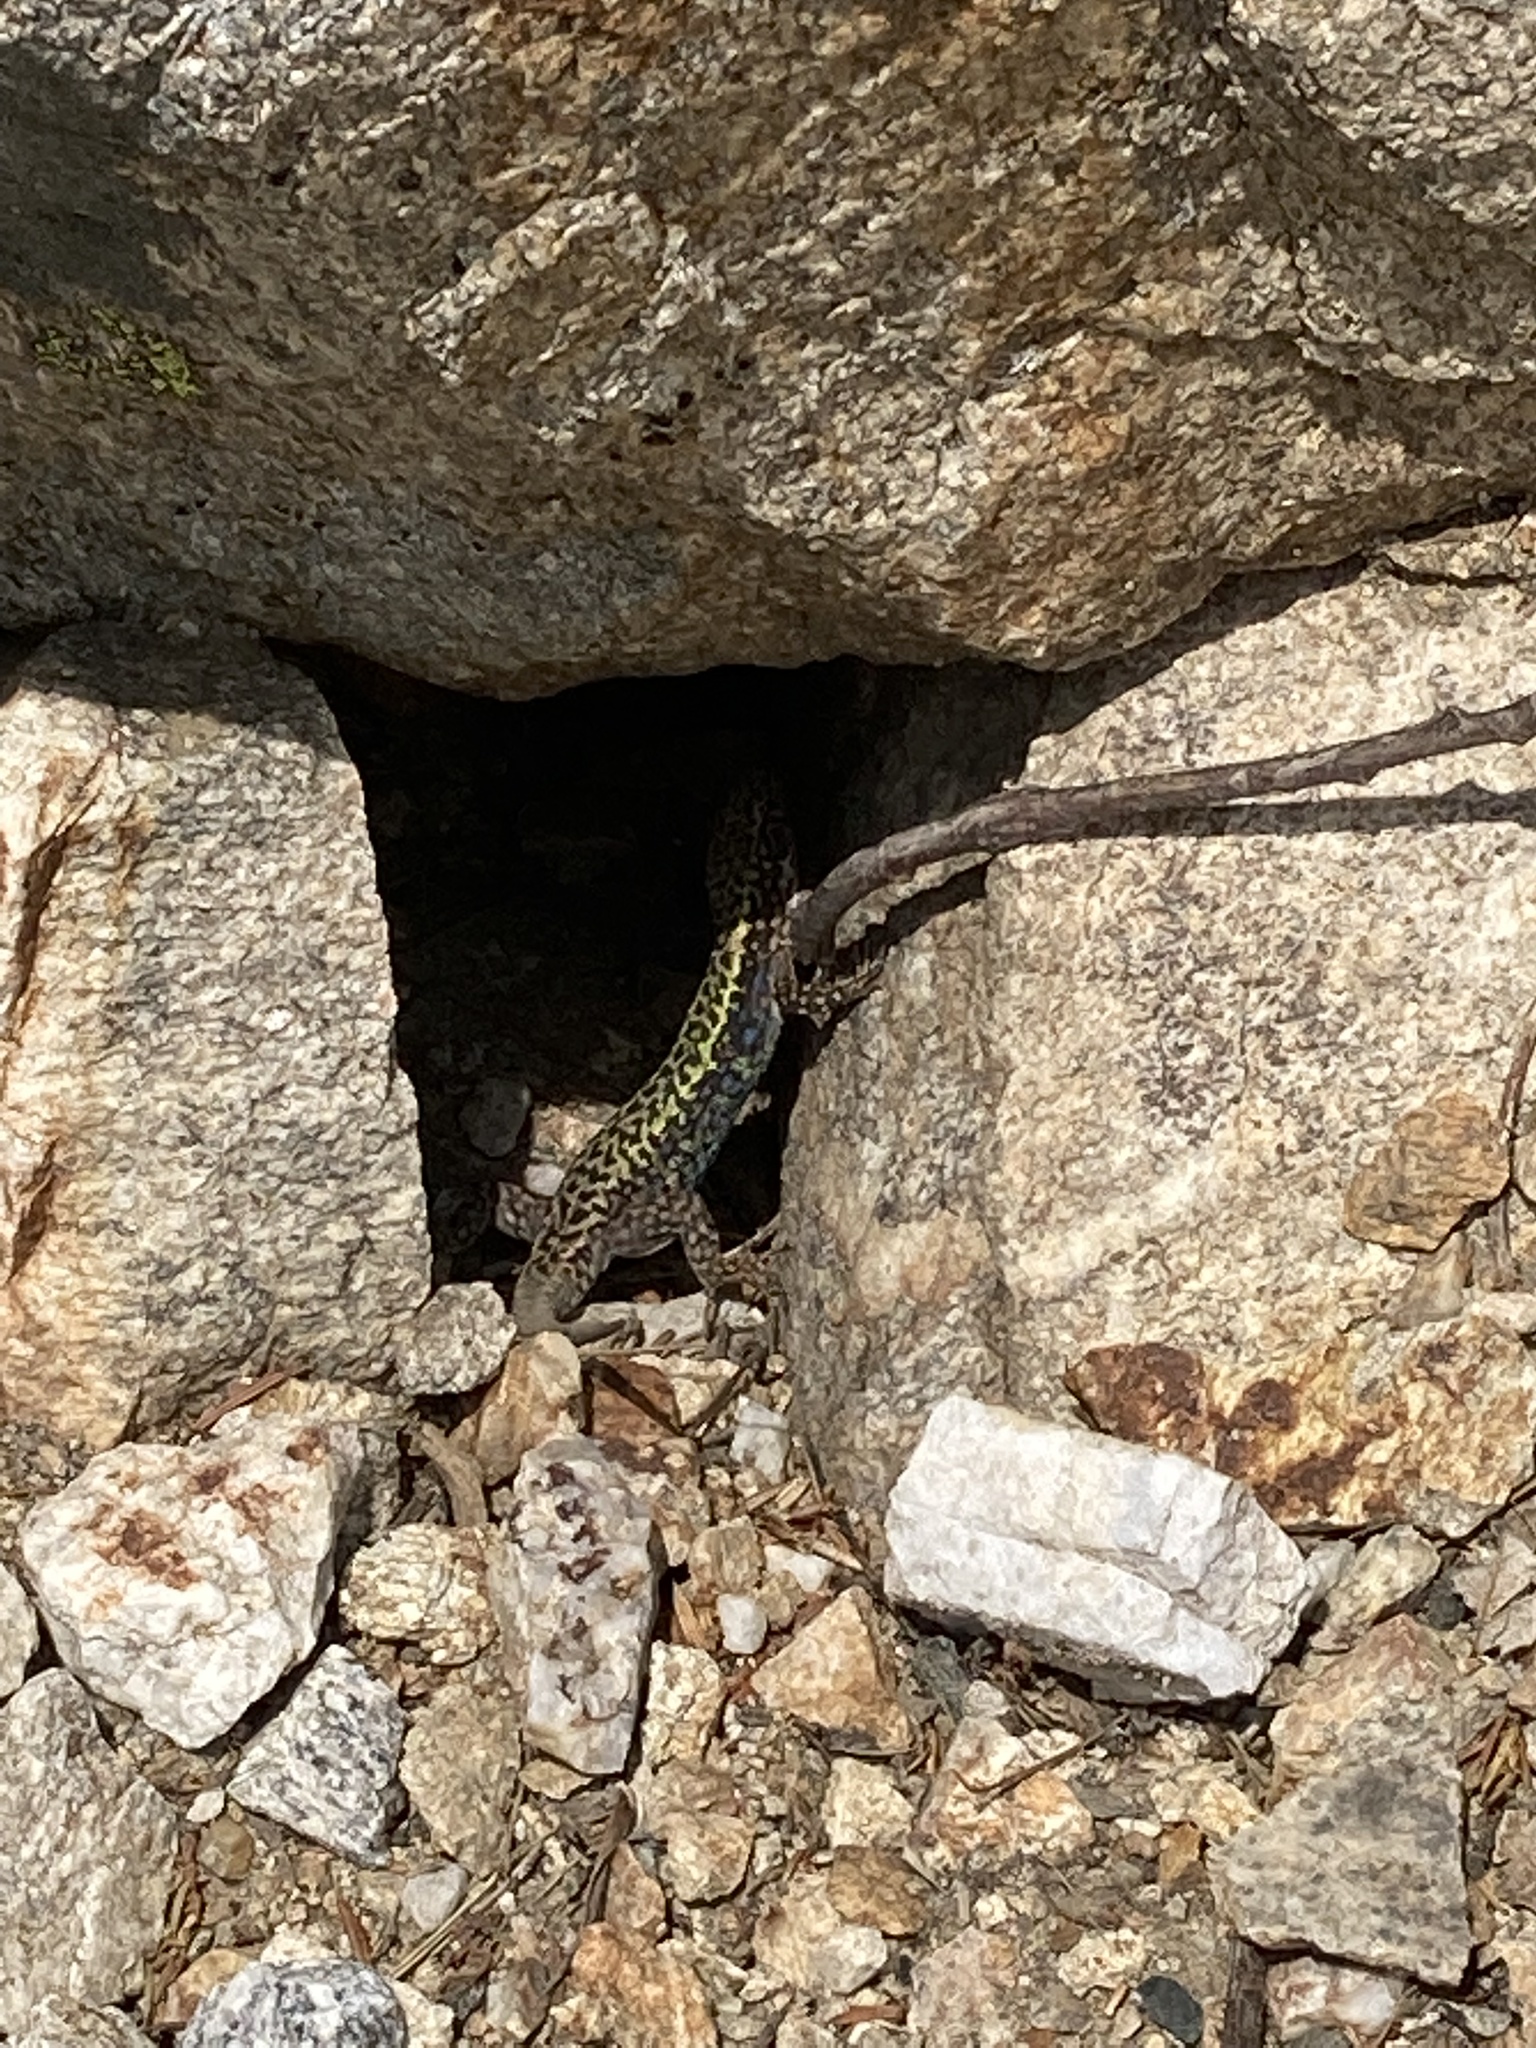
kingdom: Animalia
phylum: Chordata
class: Squamata
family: Lacertidae
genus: Darevskia
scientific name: Darevskia bithynica
